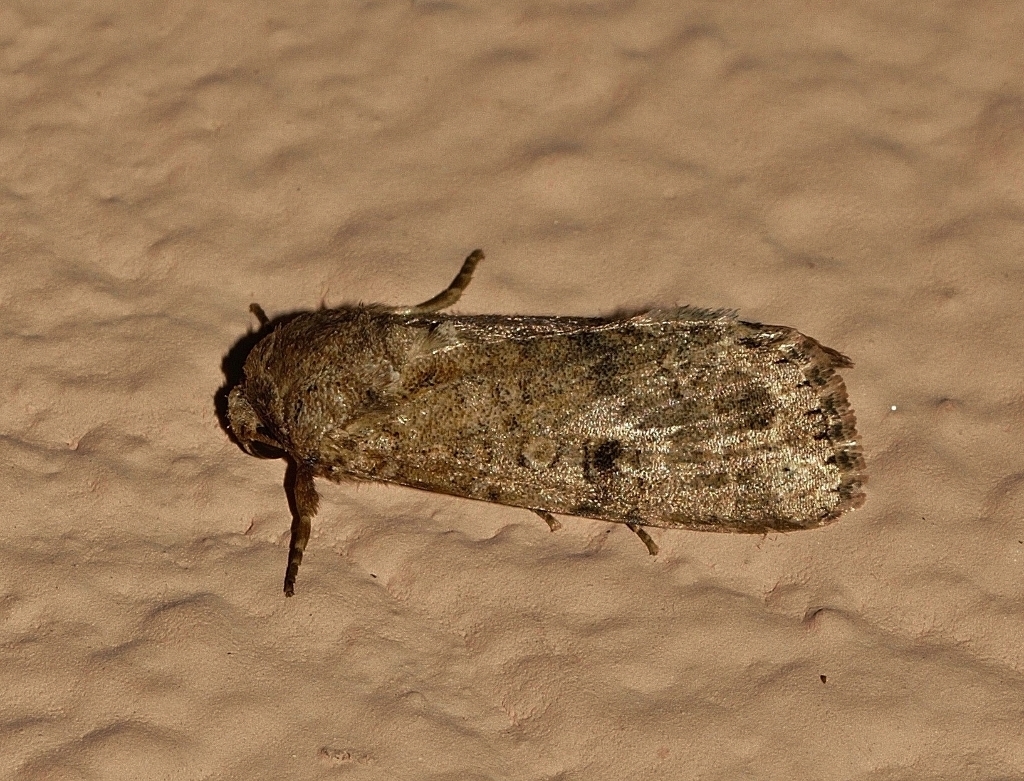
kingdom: Animalia
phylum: Arthropoda
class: Insecta
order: Lepidoptera
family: Noctuidae
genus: Spodoptera
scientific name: Spodoptera cilium
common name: Dark mottled willow
